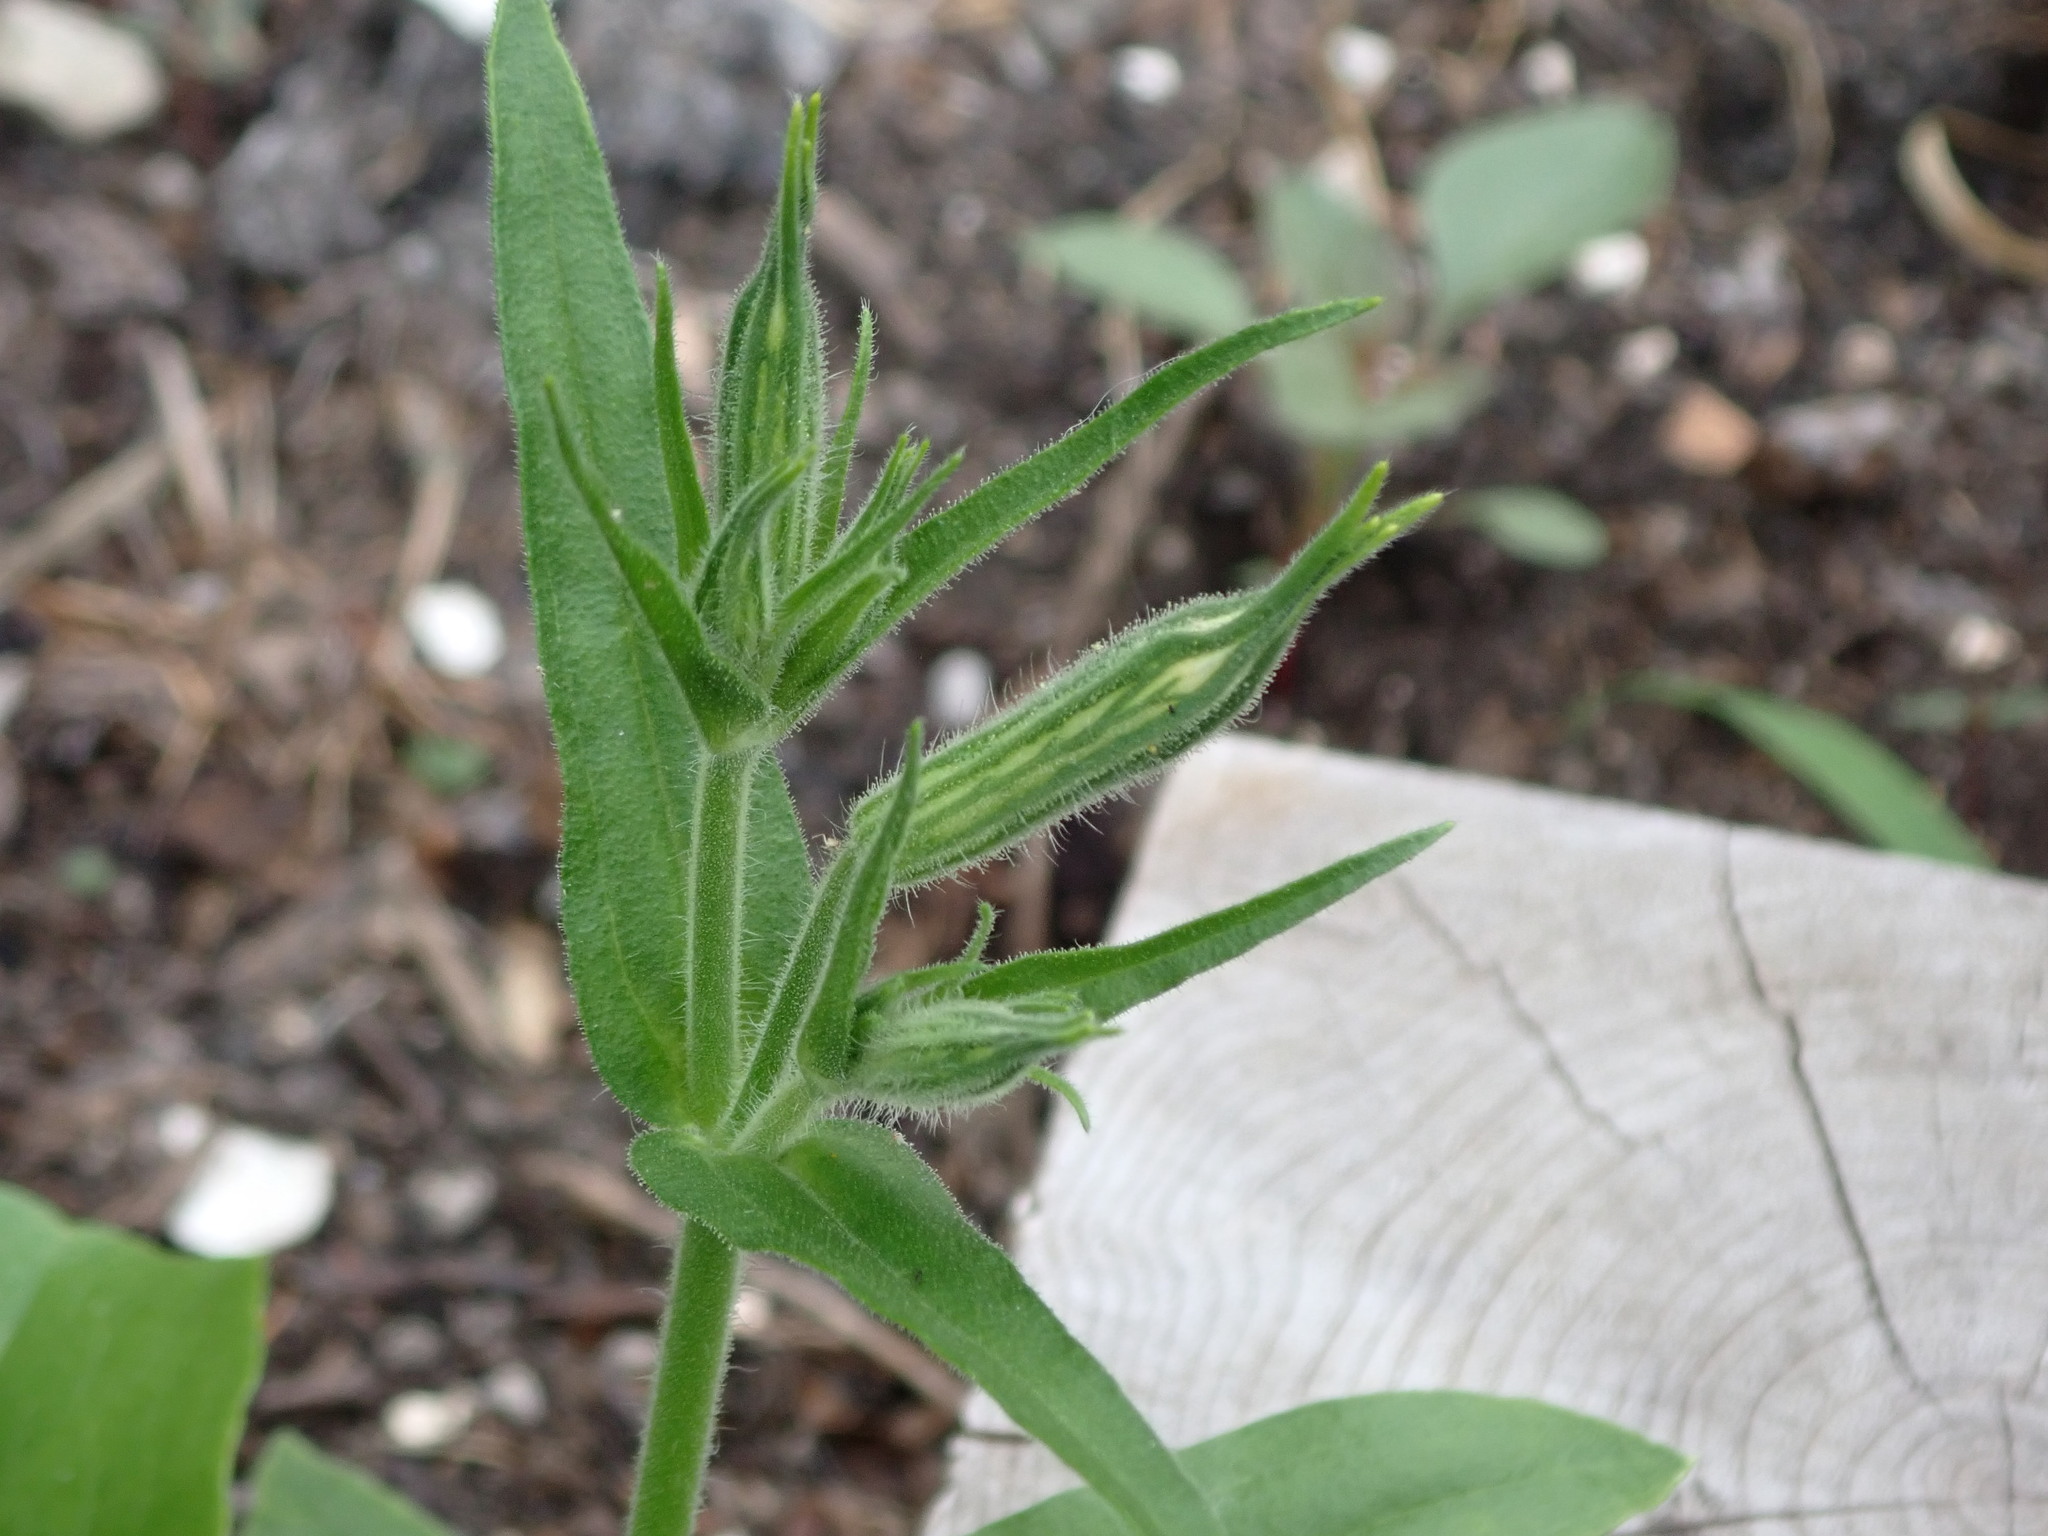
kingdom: Plantae
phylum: Tracheophyta
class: Magnoliopsida
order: Caryophyllales
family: Caryophyllaceae
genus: Silene
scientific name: Silene noctiflora
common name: Night-flowering catchfly
